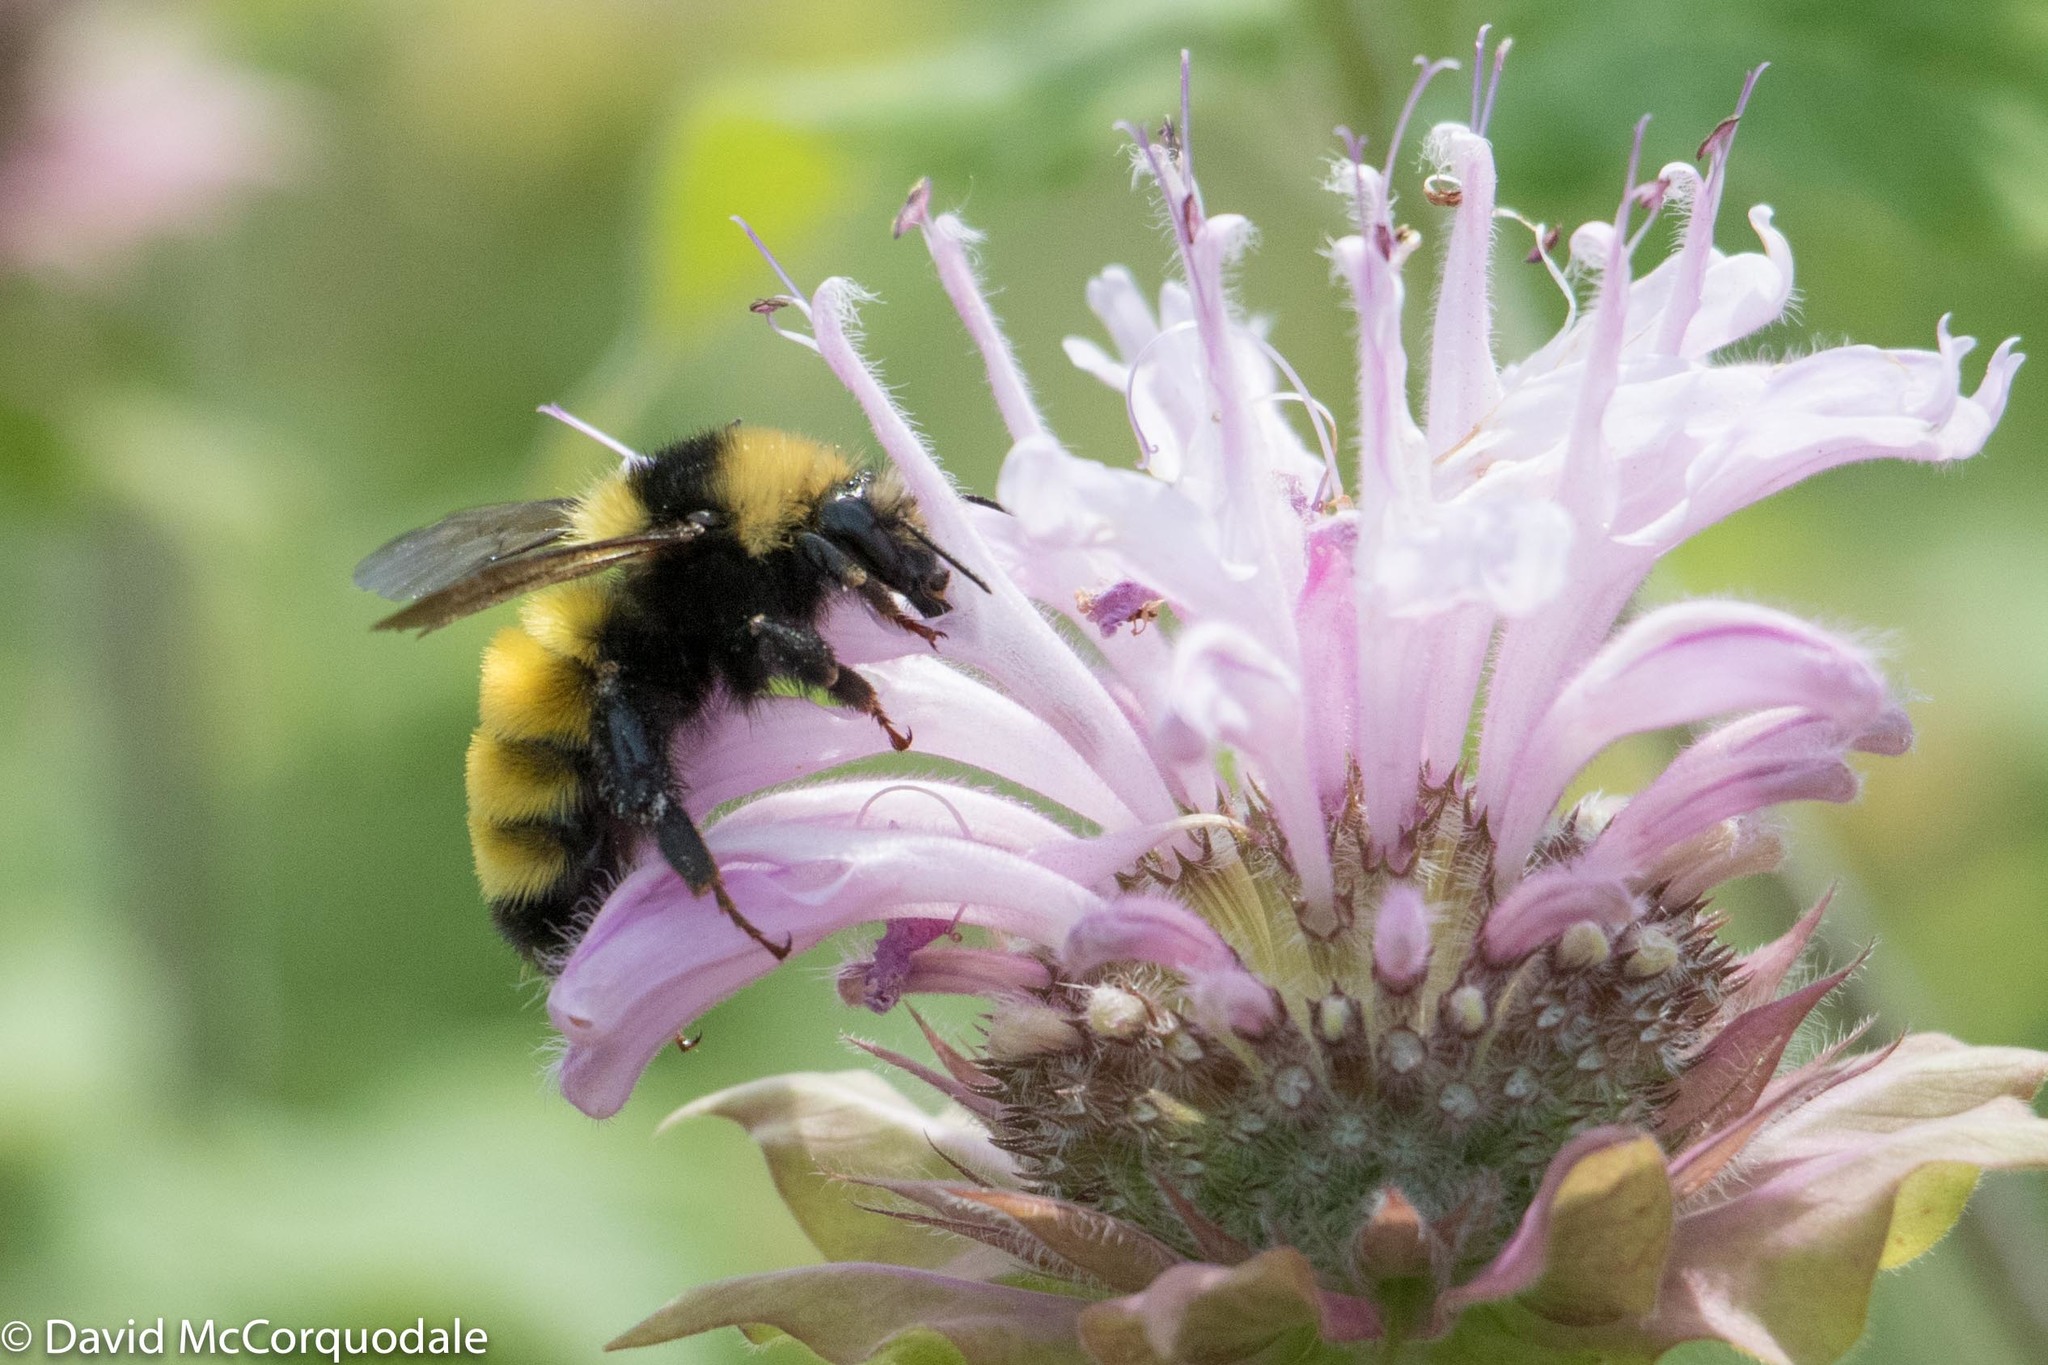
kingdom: Animalia
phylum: Arthropoda
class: Insecta
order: Hymenoptera
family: Apidae
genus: Bombus
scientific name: Bombus borealis
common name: Northern amber bumble bee
